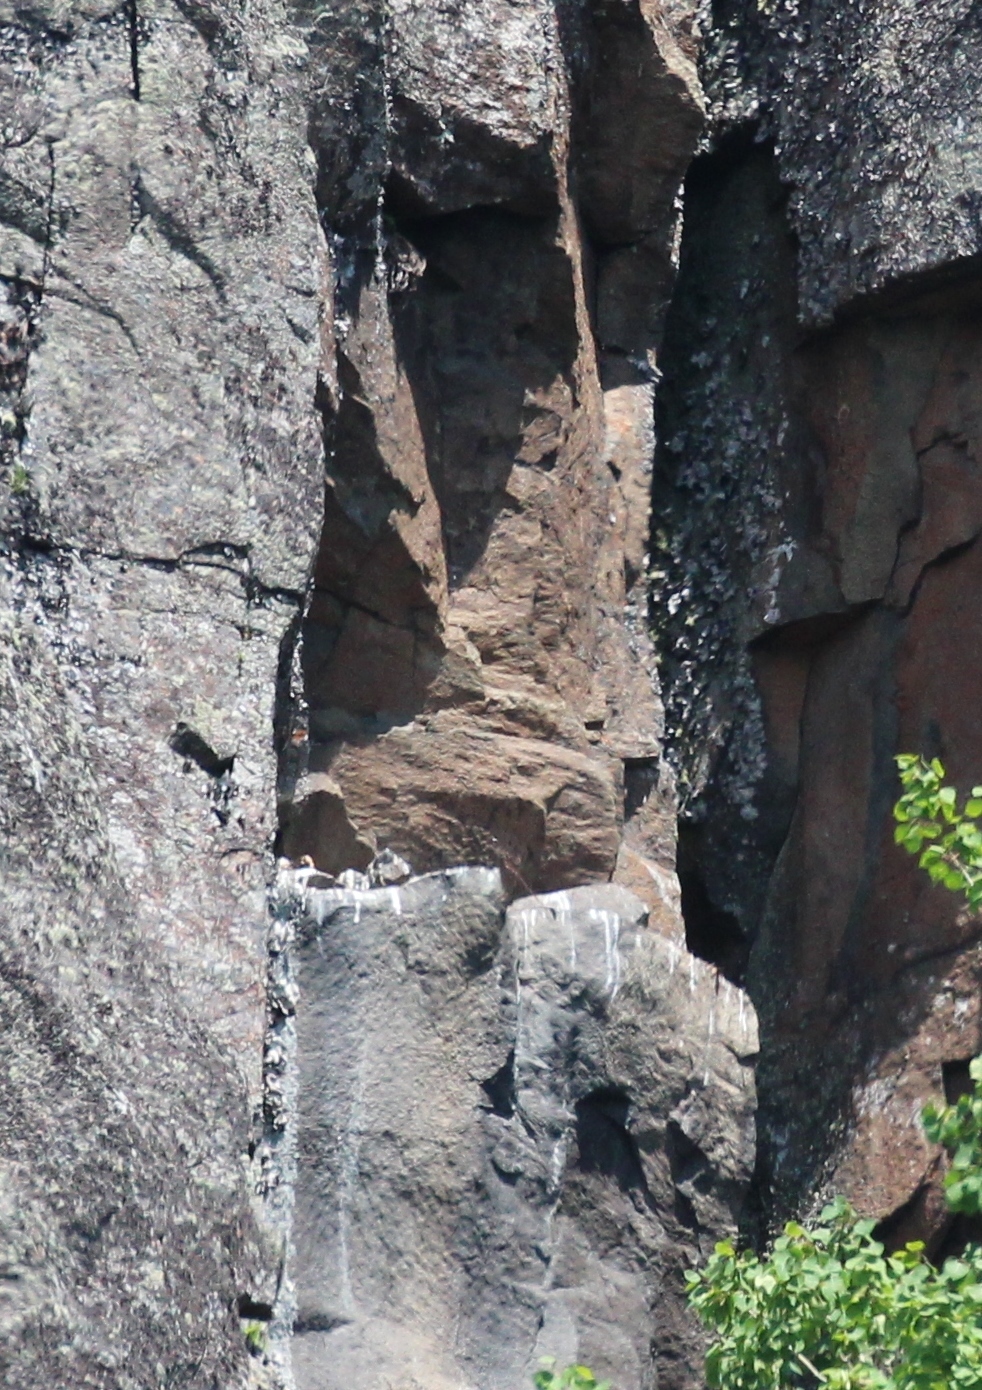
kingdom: Animalia
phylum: Chordata
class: Aves
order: Falconiformes
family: Falconidae
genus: Falco
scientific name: Falco peregrinus
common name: Peregrine falcon
